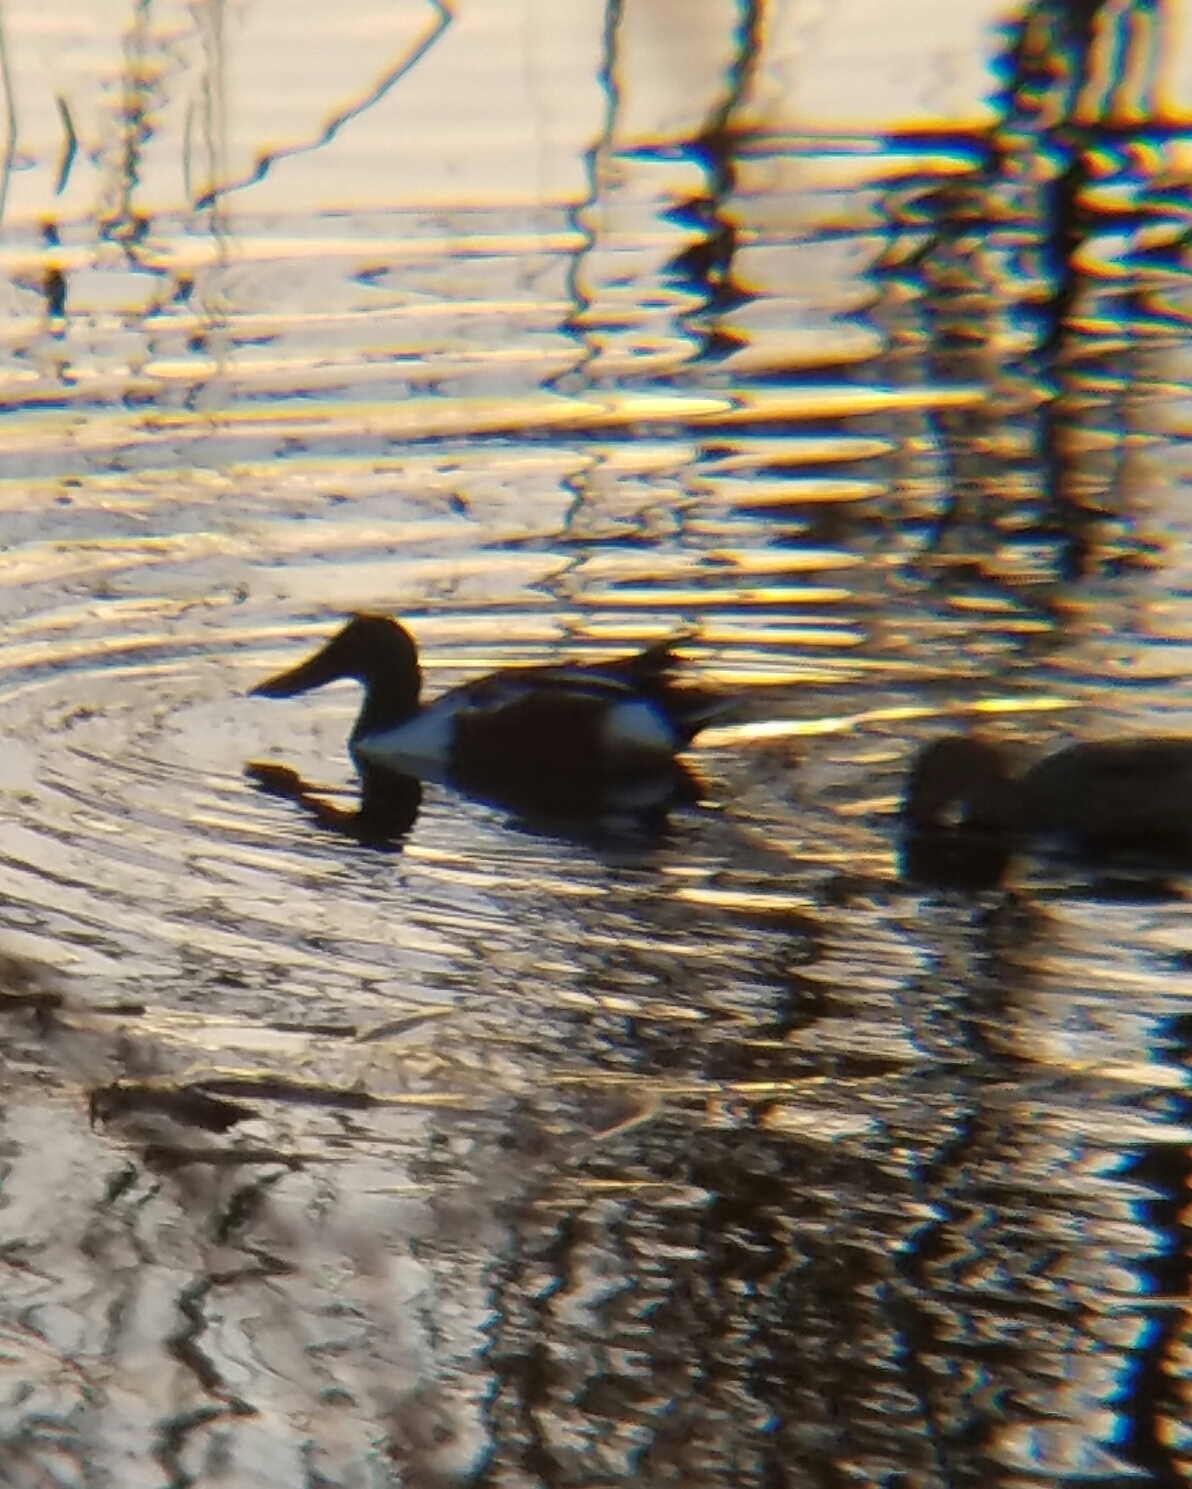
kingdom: Animalia
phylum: Chordata
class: Aves
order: Anseriformes
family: Anatidae
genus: Spatula
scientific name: Spatula clypeata
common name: Northern shoveler
